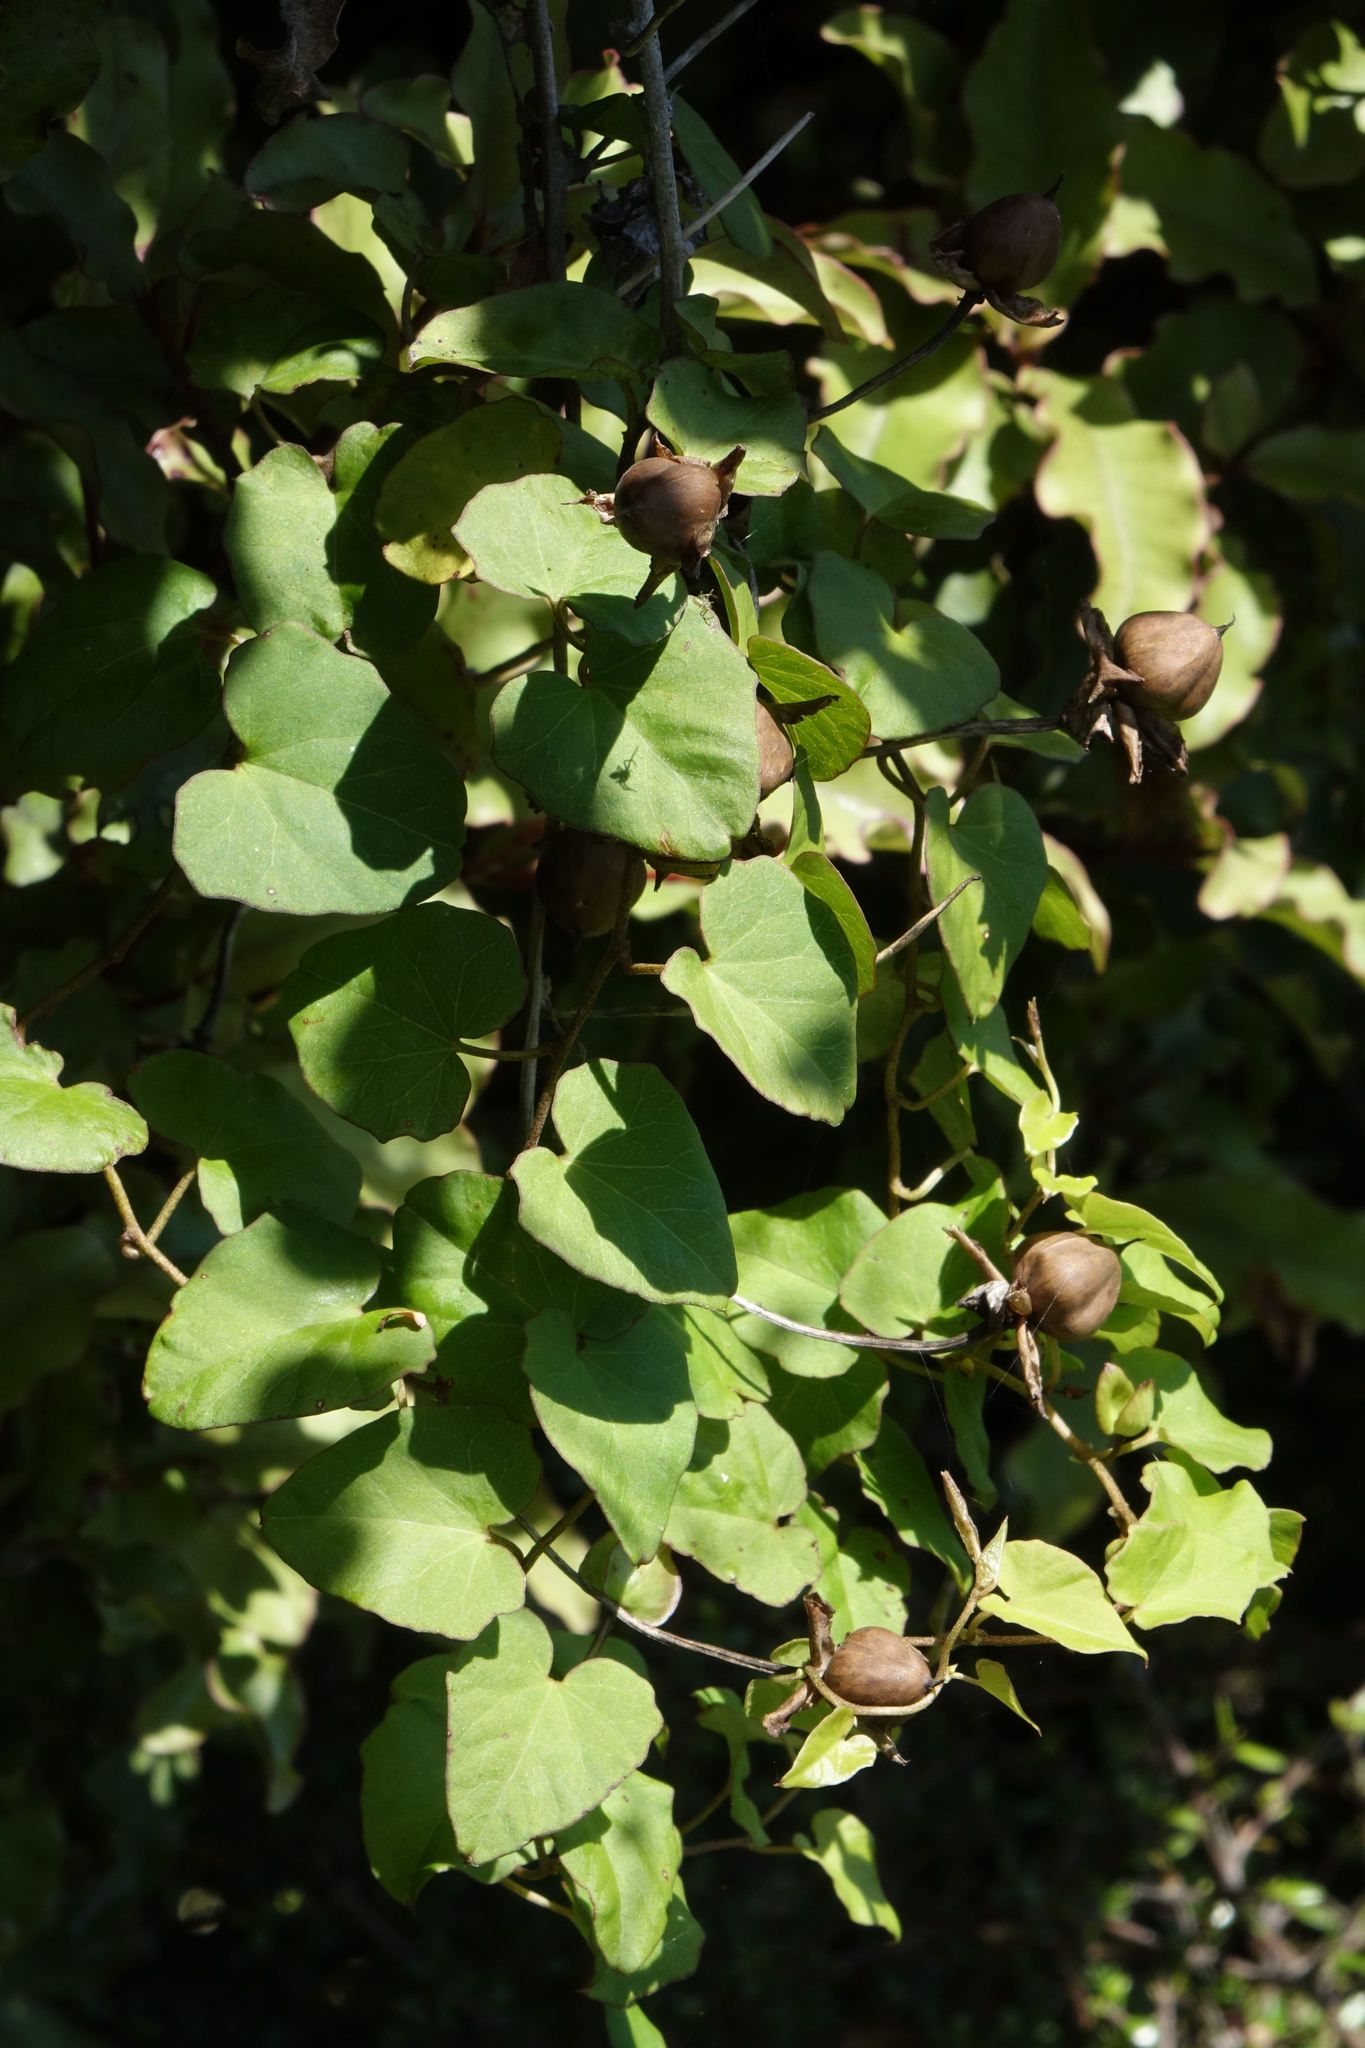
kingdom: Plantae
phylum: Tracheophyta
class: Magnoliopsida
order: Solanales
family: Convolvulaceae
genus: Calystegia
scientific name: Calystegia tuguriorum
